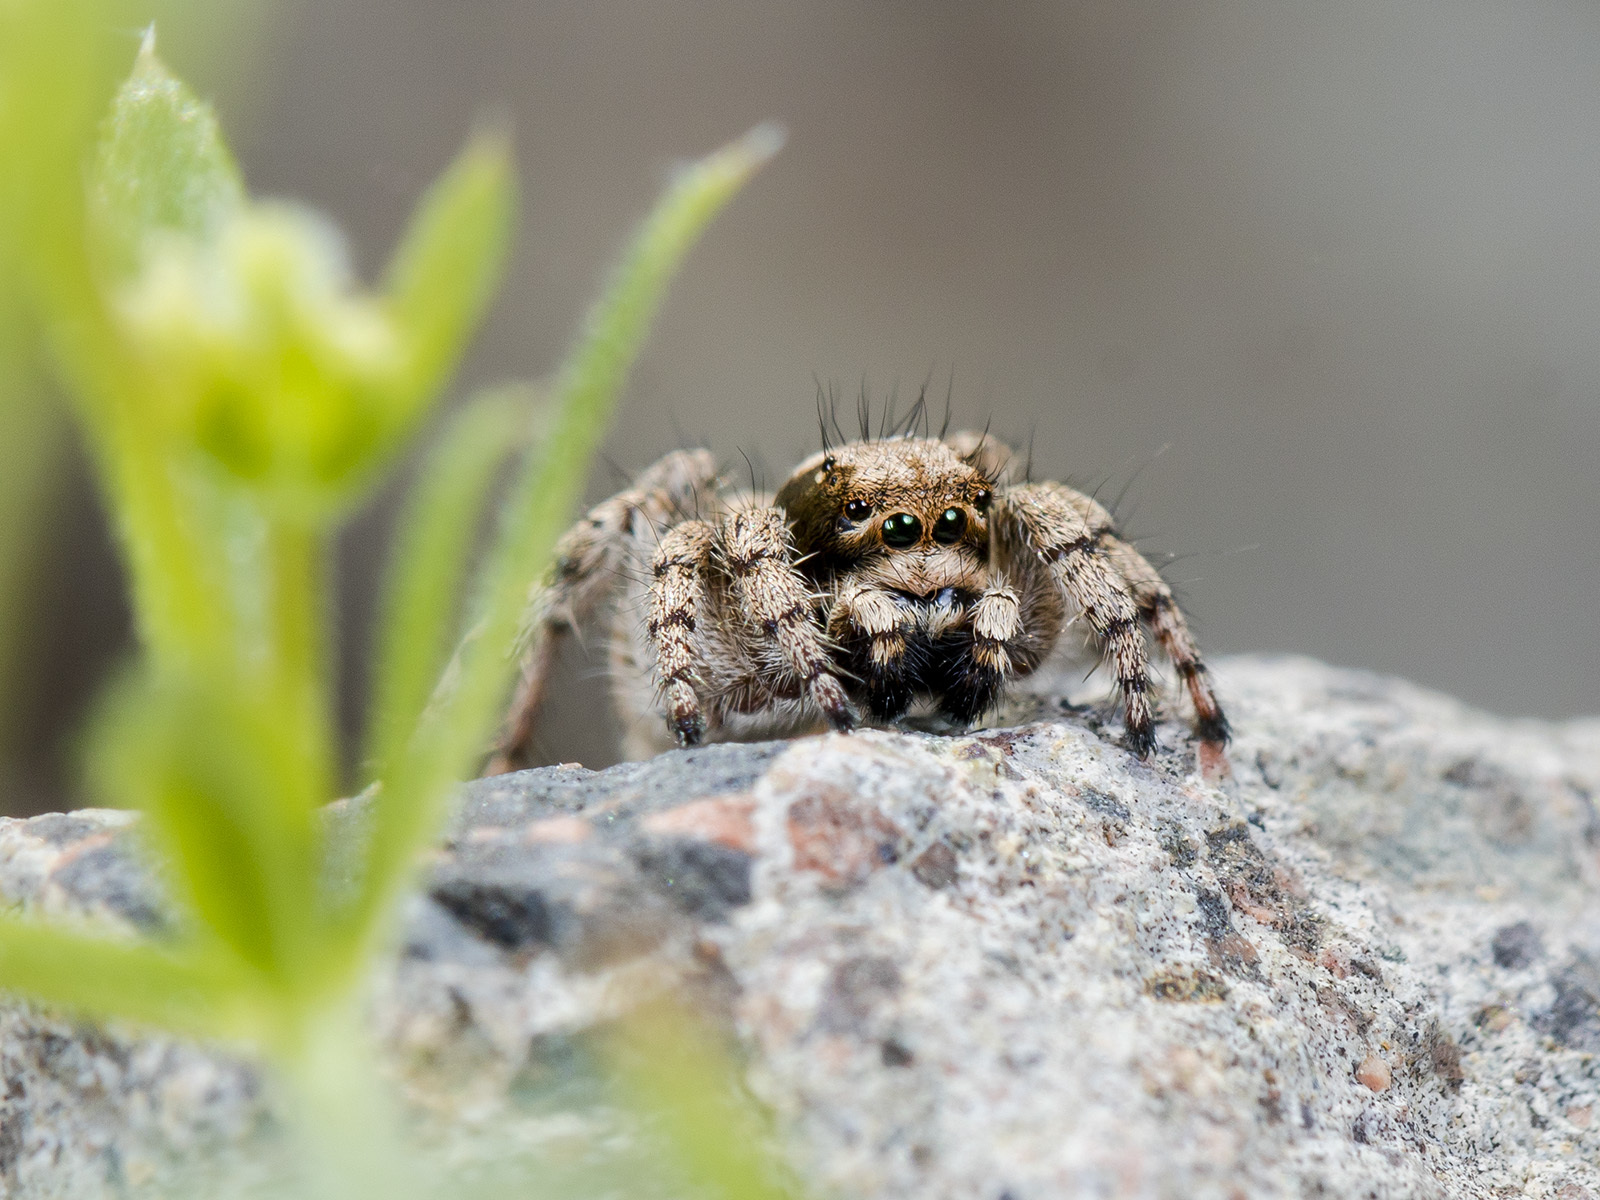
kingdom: Animalia
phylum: Arthropoda
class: Arachnida
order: Araneae
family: Salticidae
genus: Rafalus
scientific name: Rafalus variegatus
